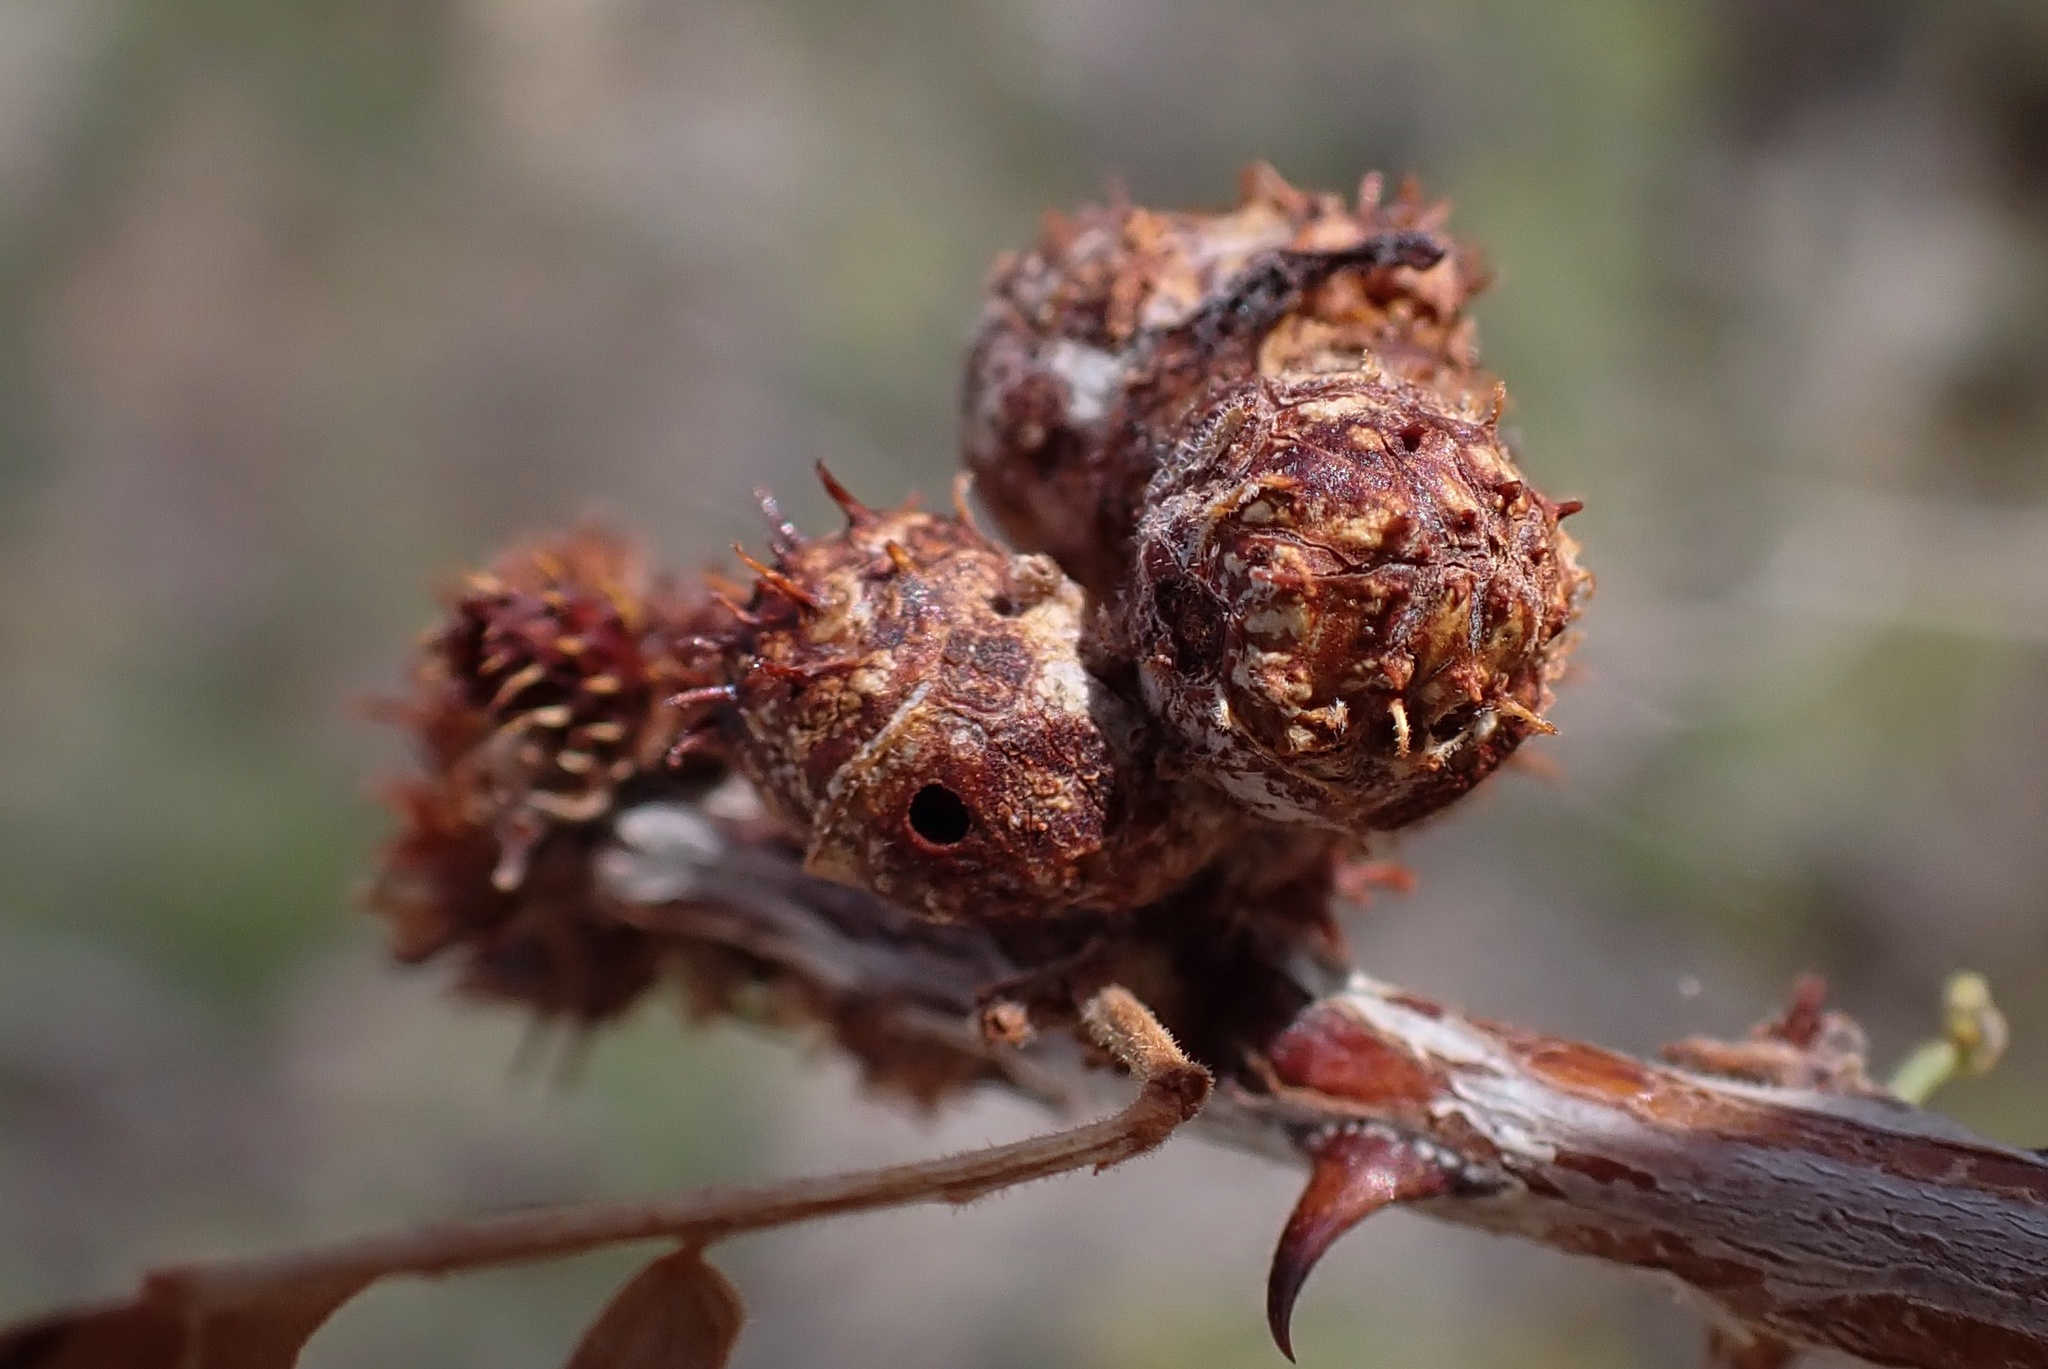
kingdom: Animalia
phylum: Arthropoda
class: Insecta
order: Hymenoptera
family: Tanaostigmatidae
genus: Tanaostigmodes
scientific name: Tanaostigmodes howardii
